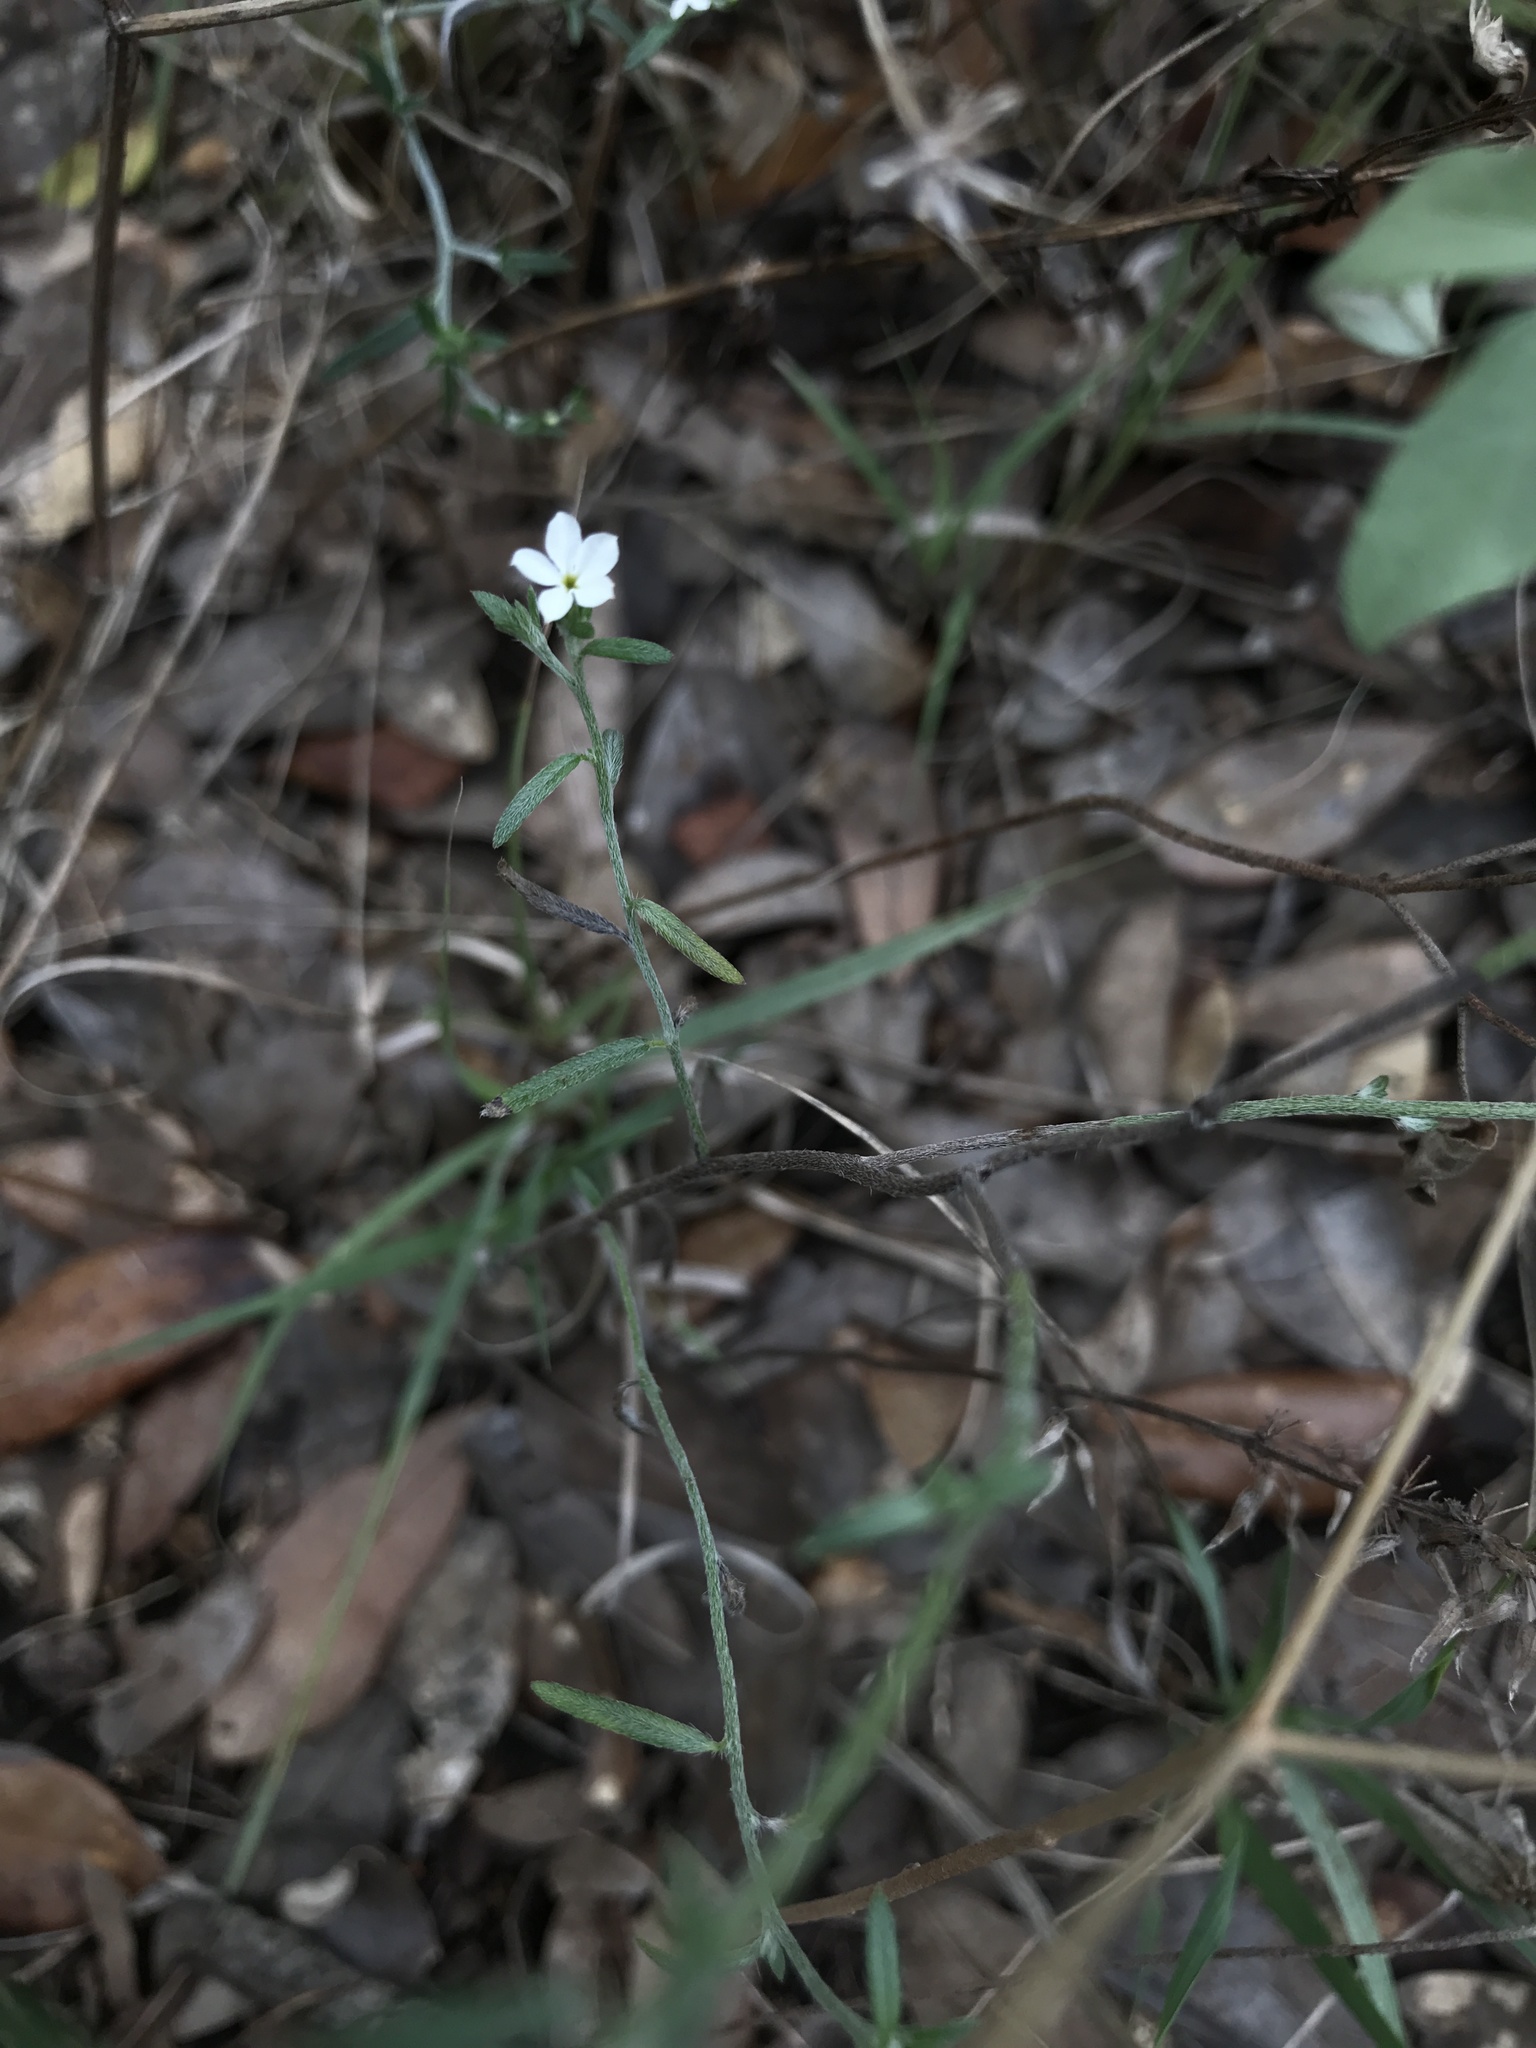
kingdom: Plantae
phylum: Tracheophyta
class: Magnoliopsida
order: Boraginales
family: Heliotropiaceae
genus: Euploca
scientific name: Euploca tenella
